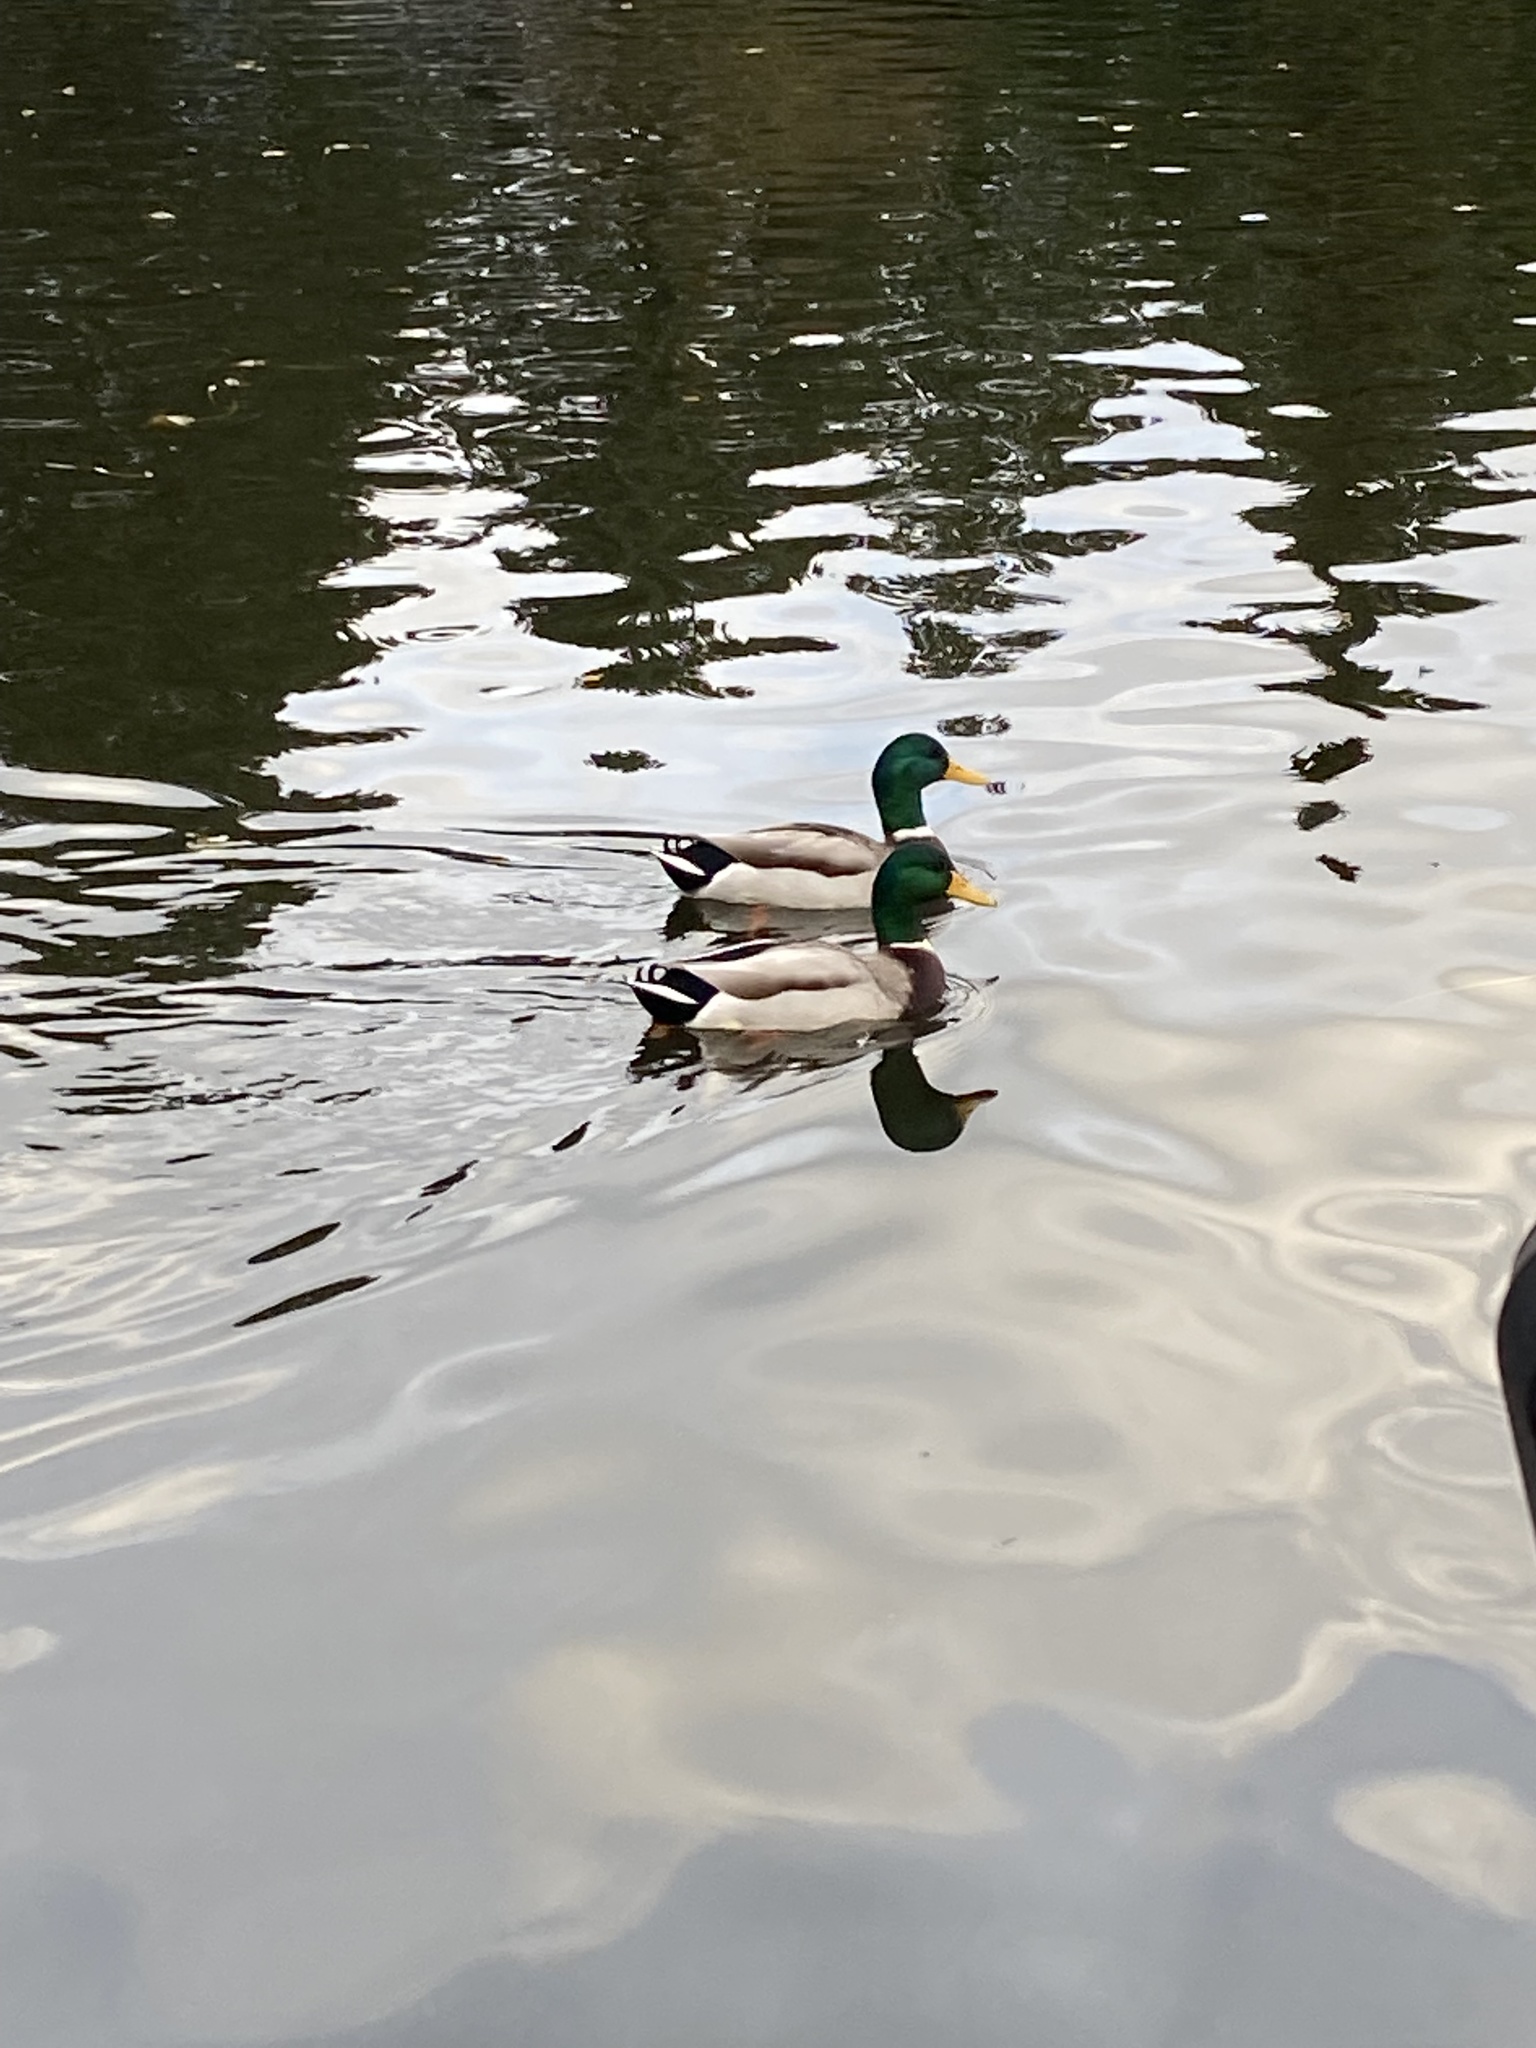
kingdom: Animalia
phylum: Chordata
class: Aves
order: Anseriformes
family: Anatidae
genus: Anas
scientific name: Anas platyrhynchos
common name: Mallard
